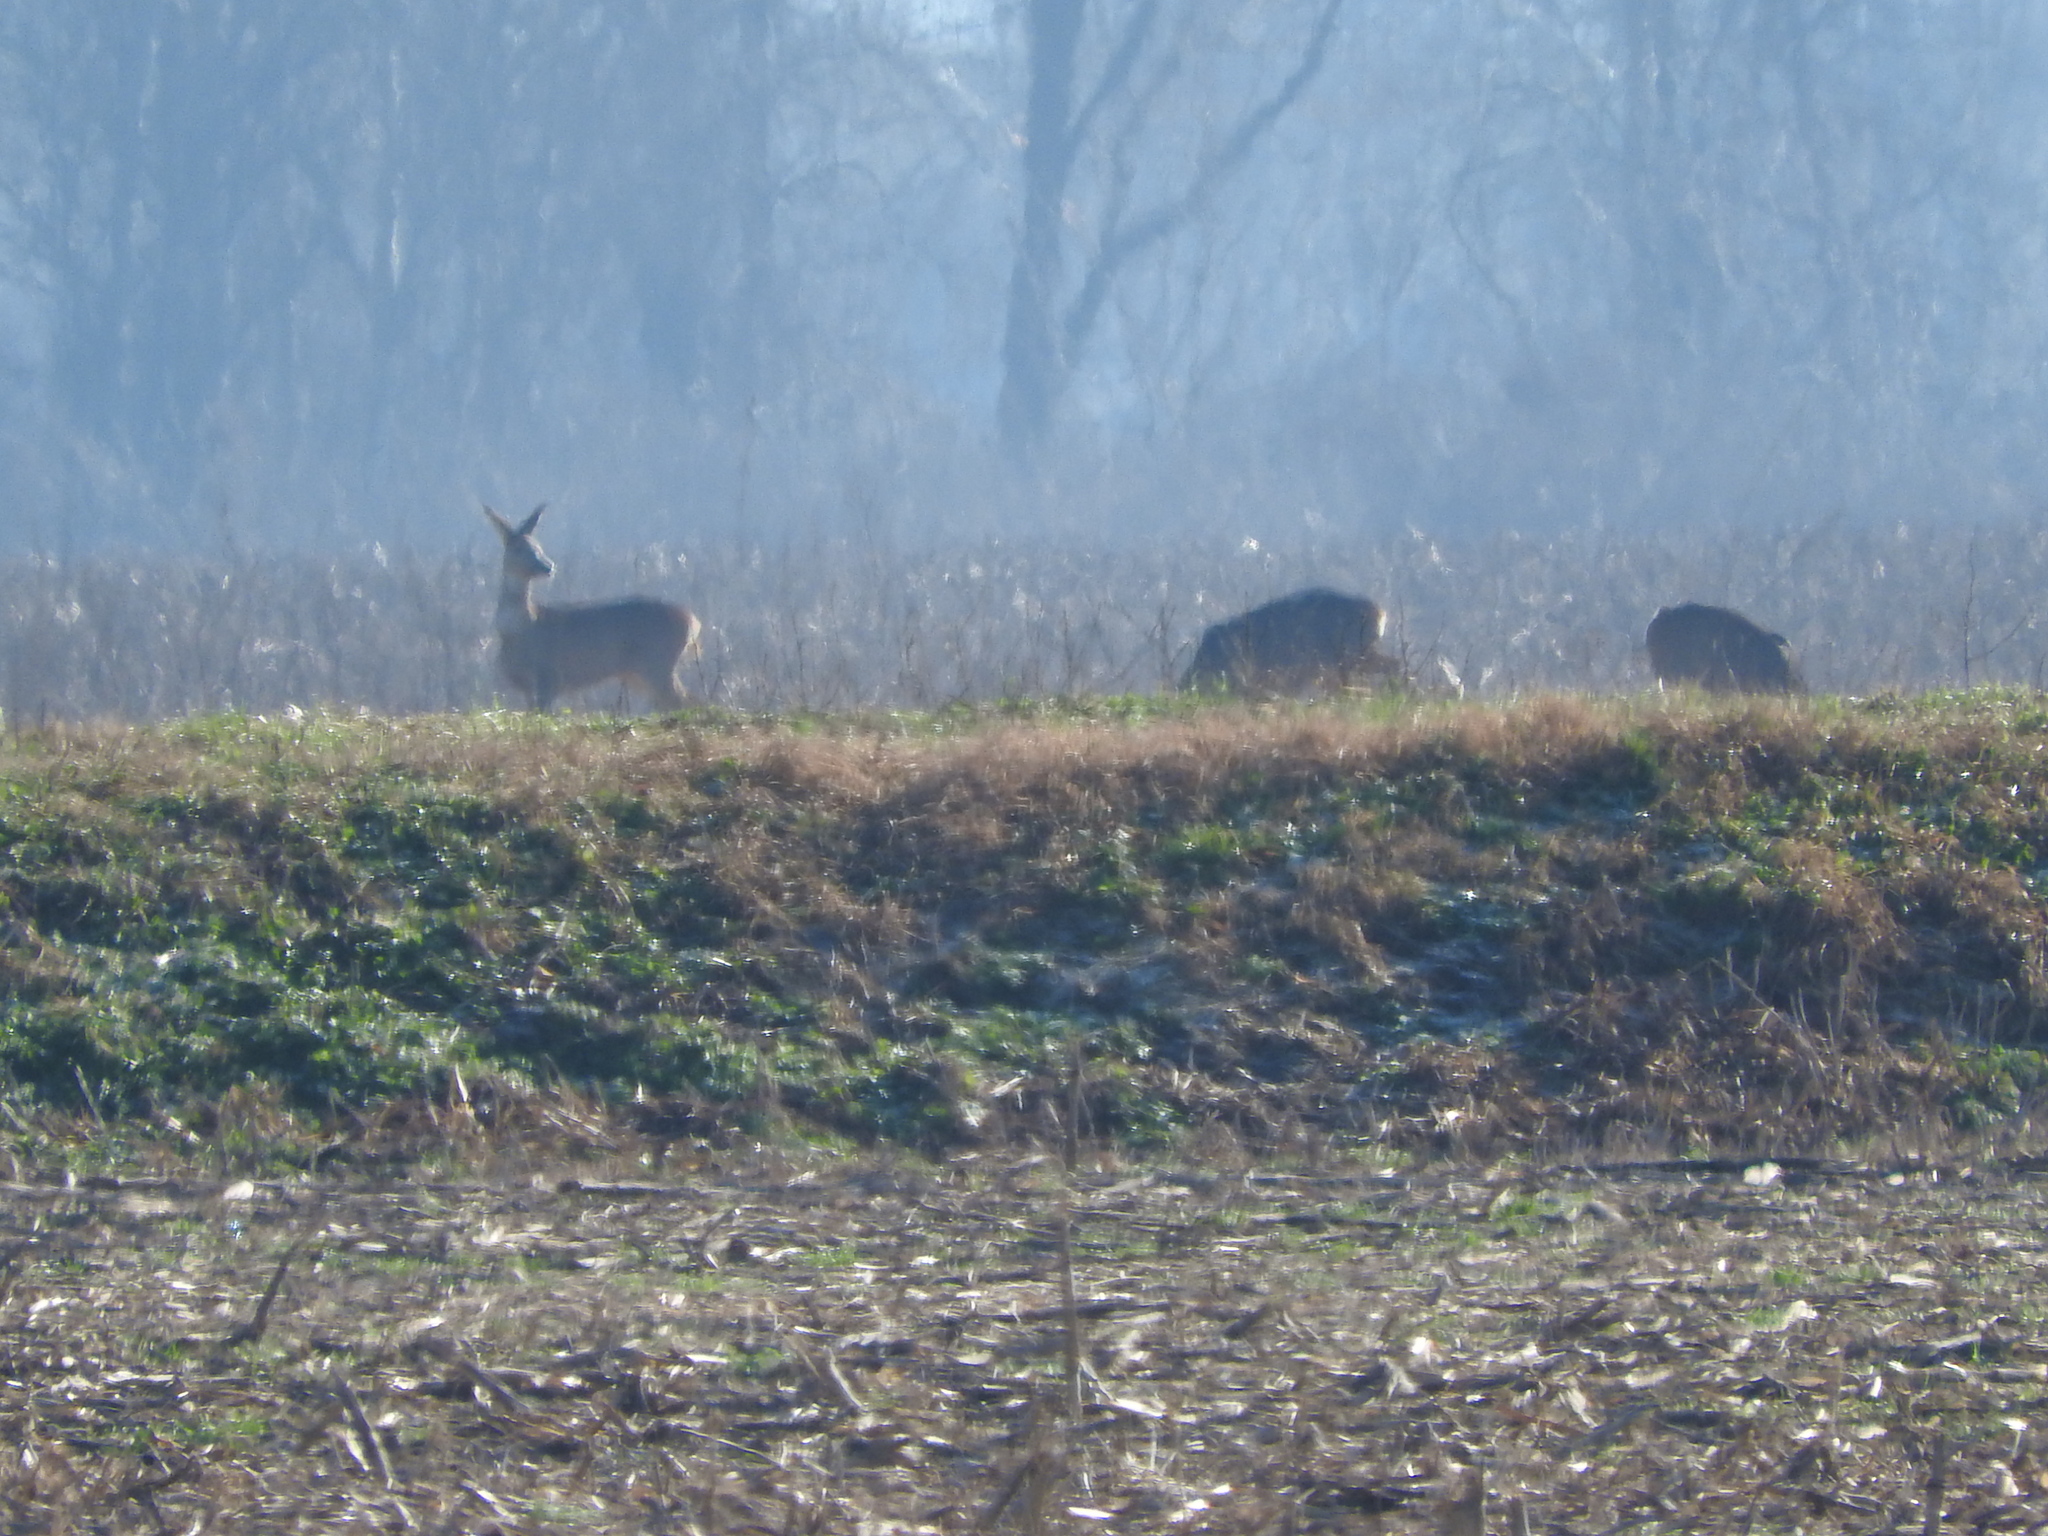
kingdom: Animalia
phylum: Chordata
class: Mammalia
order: Artiodactyla
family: Cervidae
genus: Capreolus
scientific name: Capreolus capreolus
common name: Western roe deer
